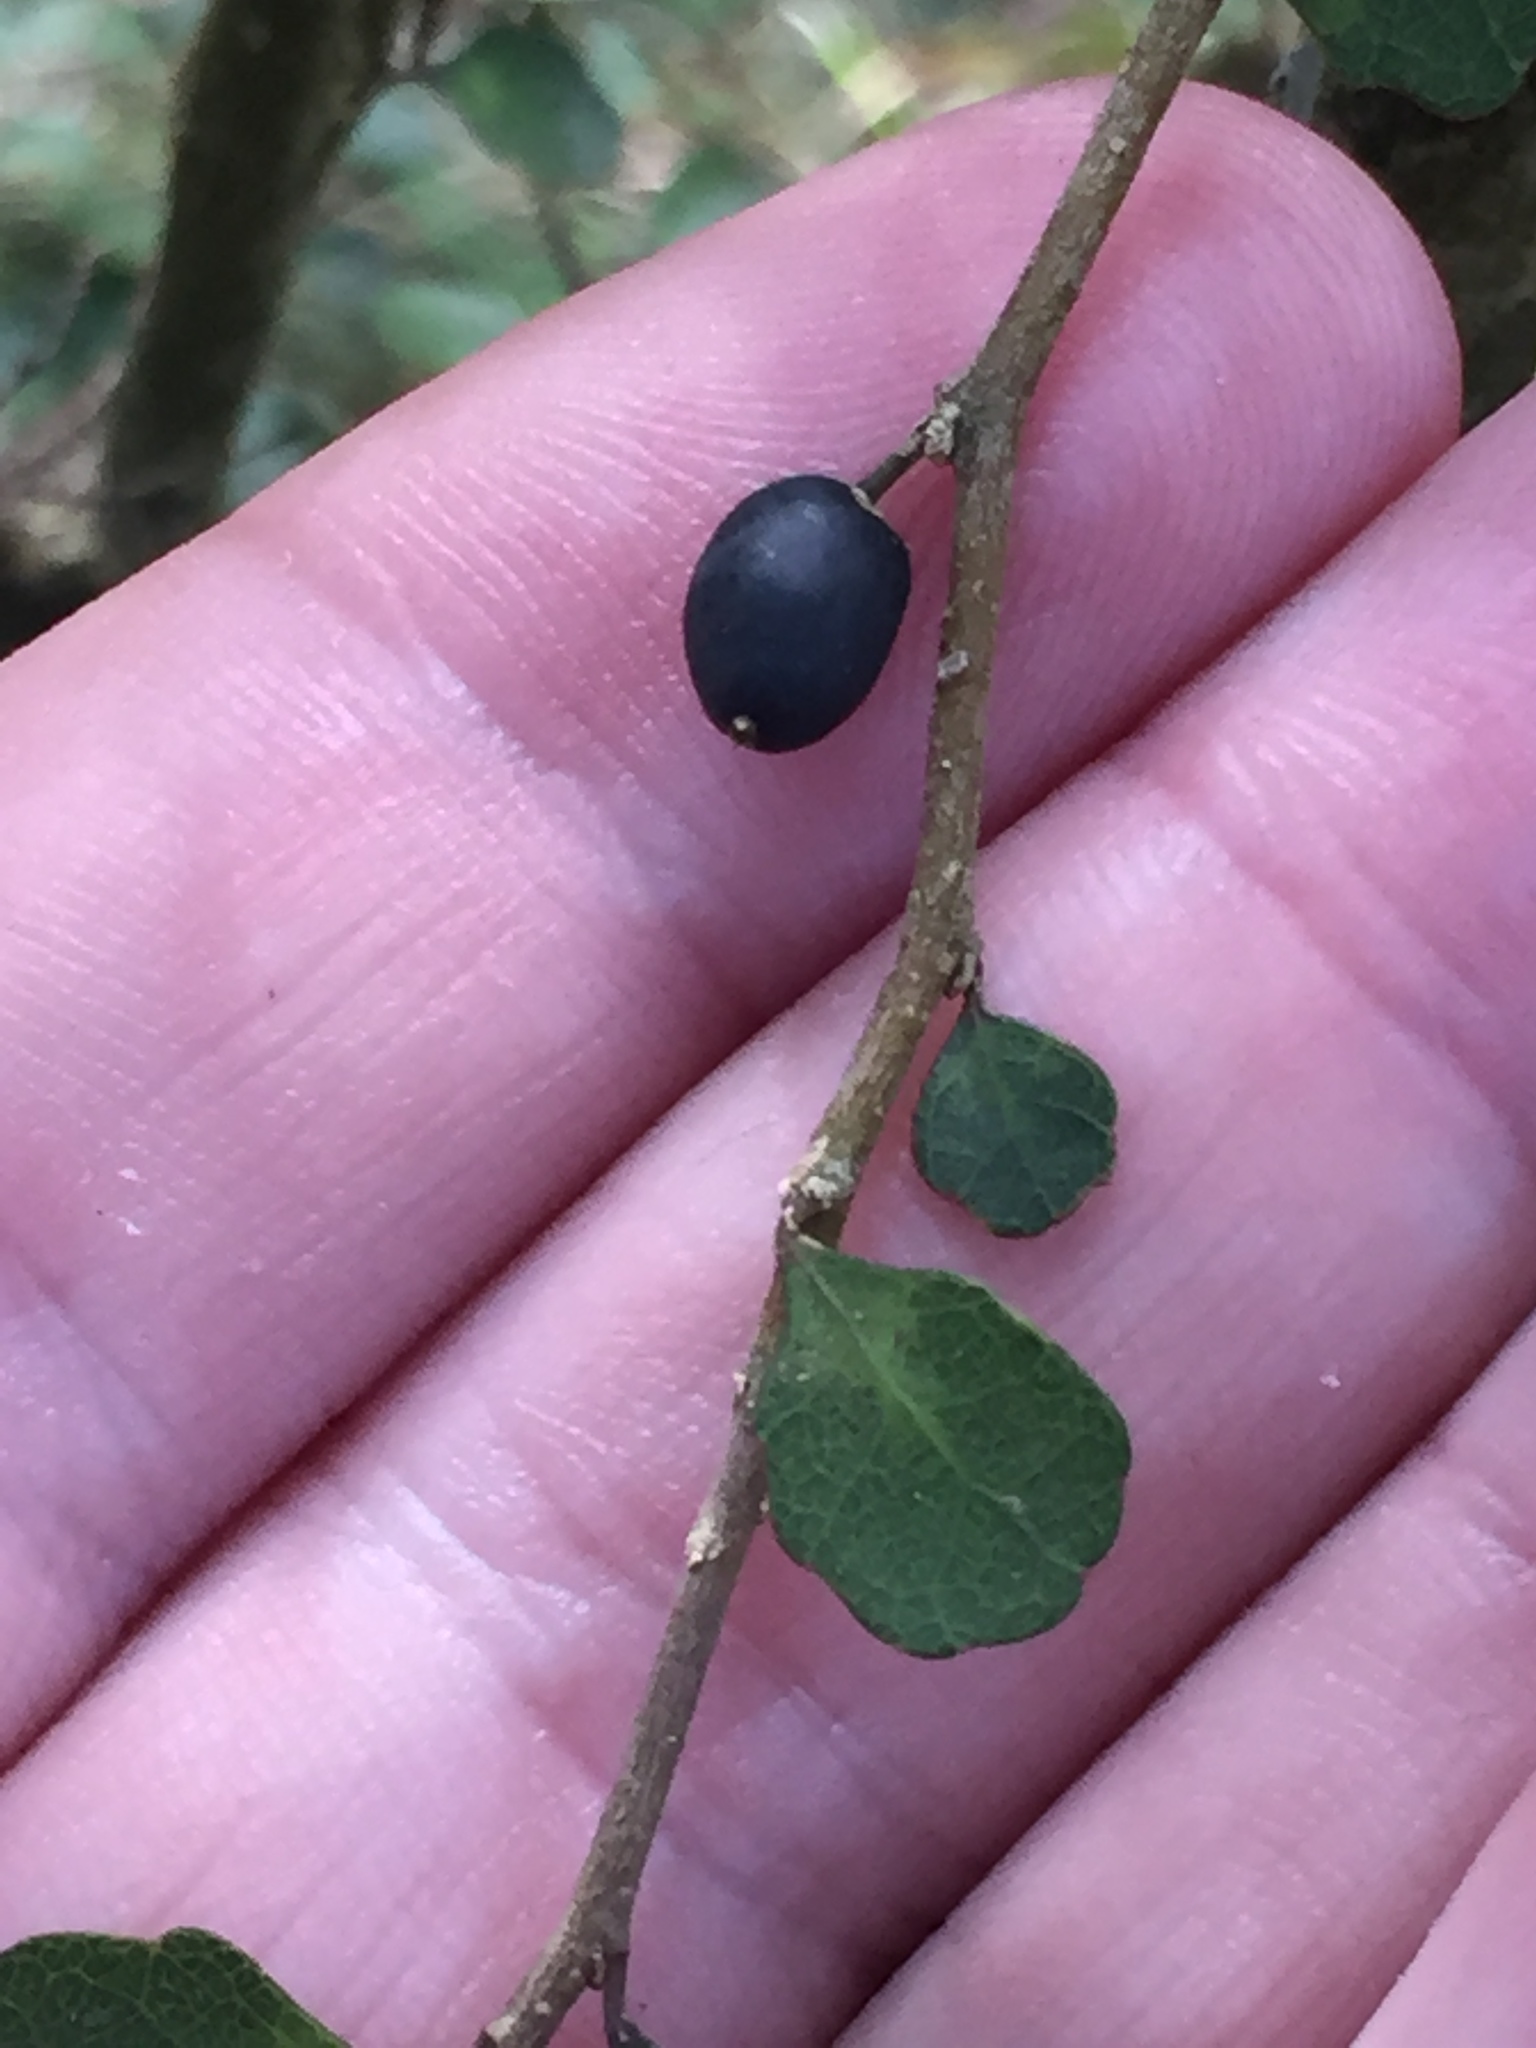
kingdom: Plantae
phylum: Tracheophyta
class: Magnoliopsida
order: Malpighiales
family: Violaceae
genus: Melicytus
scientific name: Melicytus micranthus
